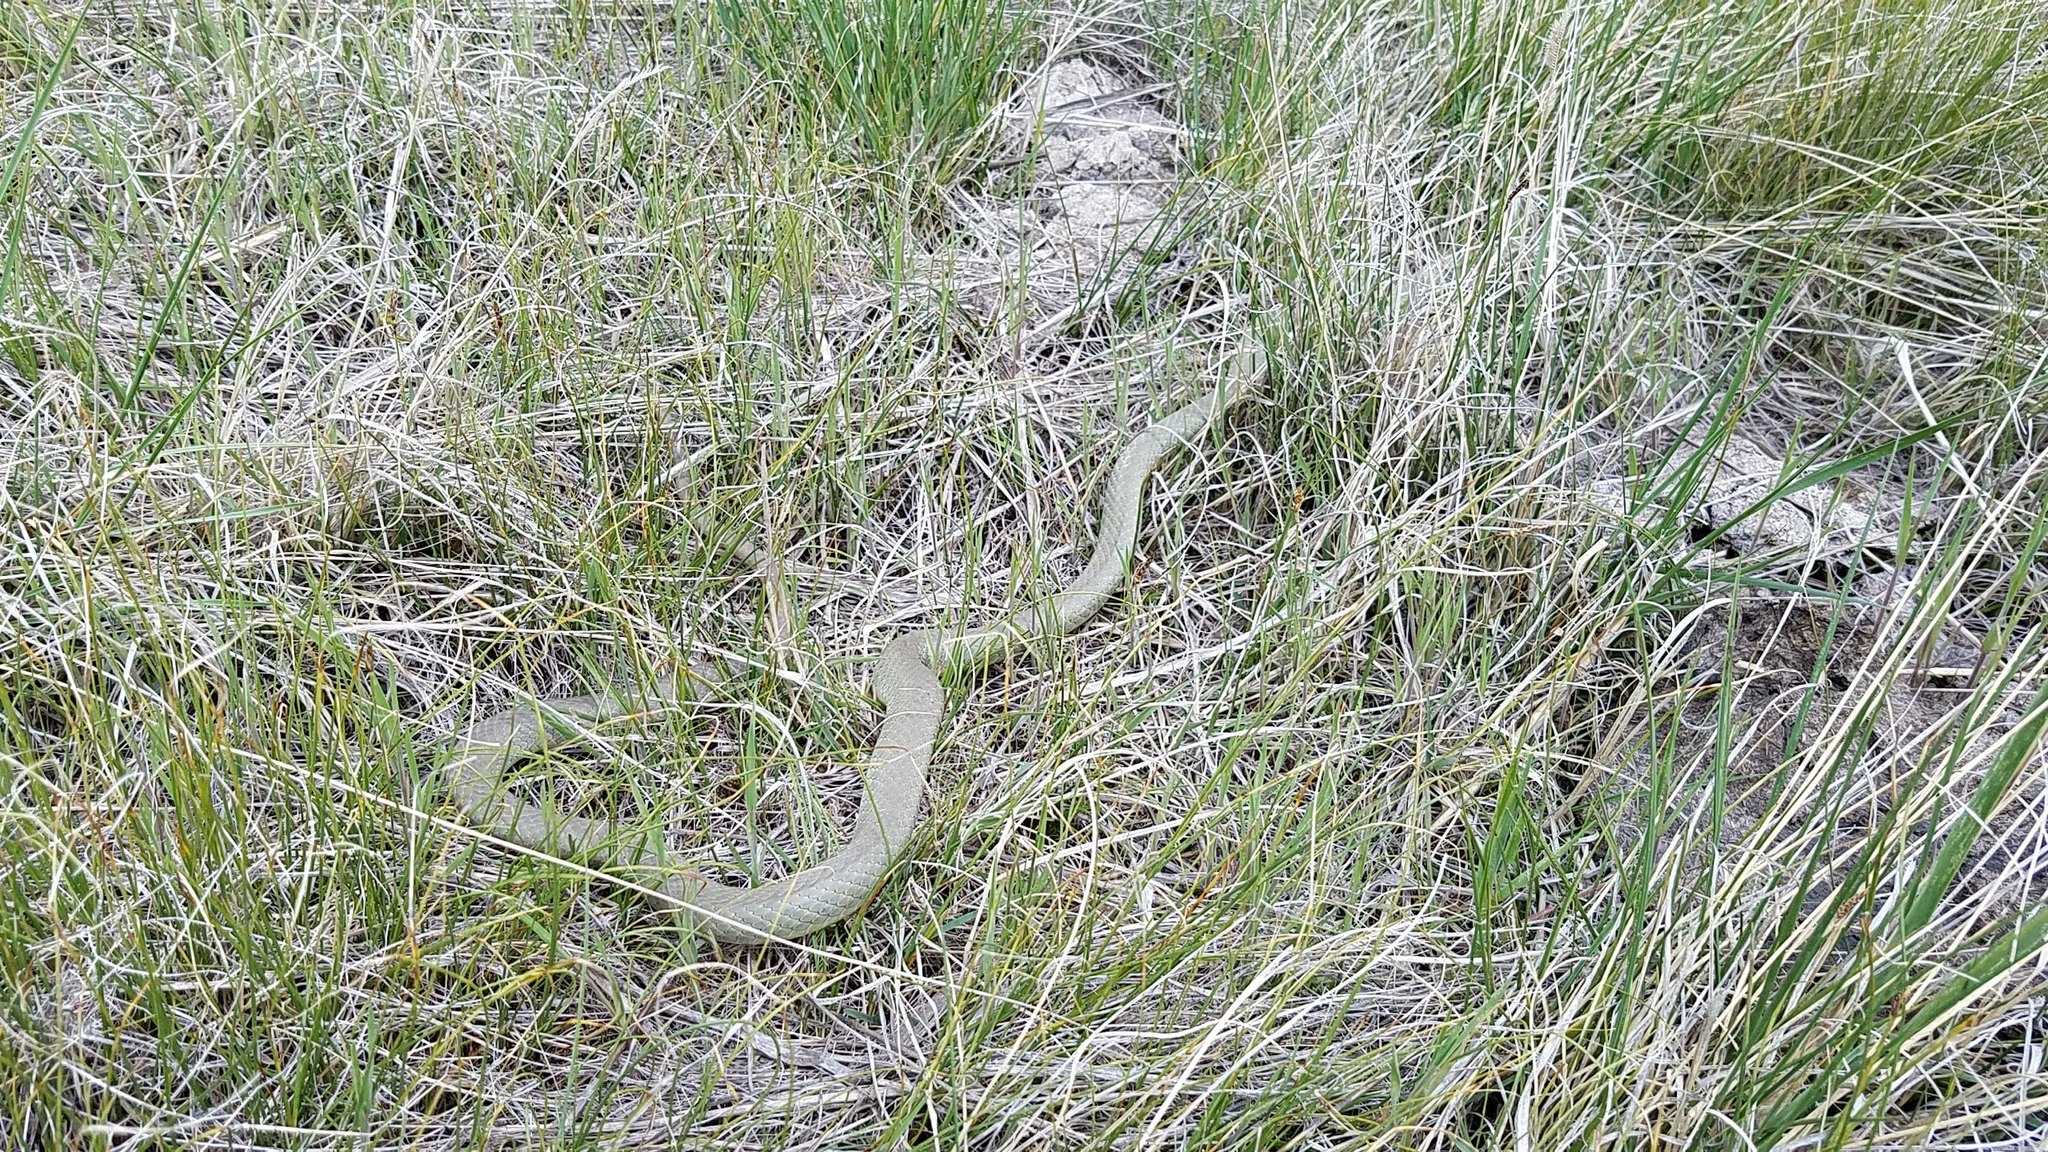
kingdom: Animalia
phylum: Chordata
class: Squamata
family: Colubridae
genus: Coluber
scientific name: Coluber constrictor
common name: Eastern racer
